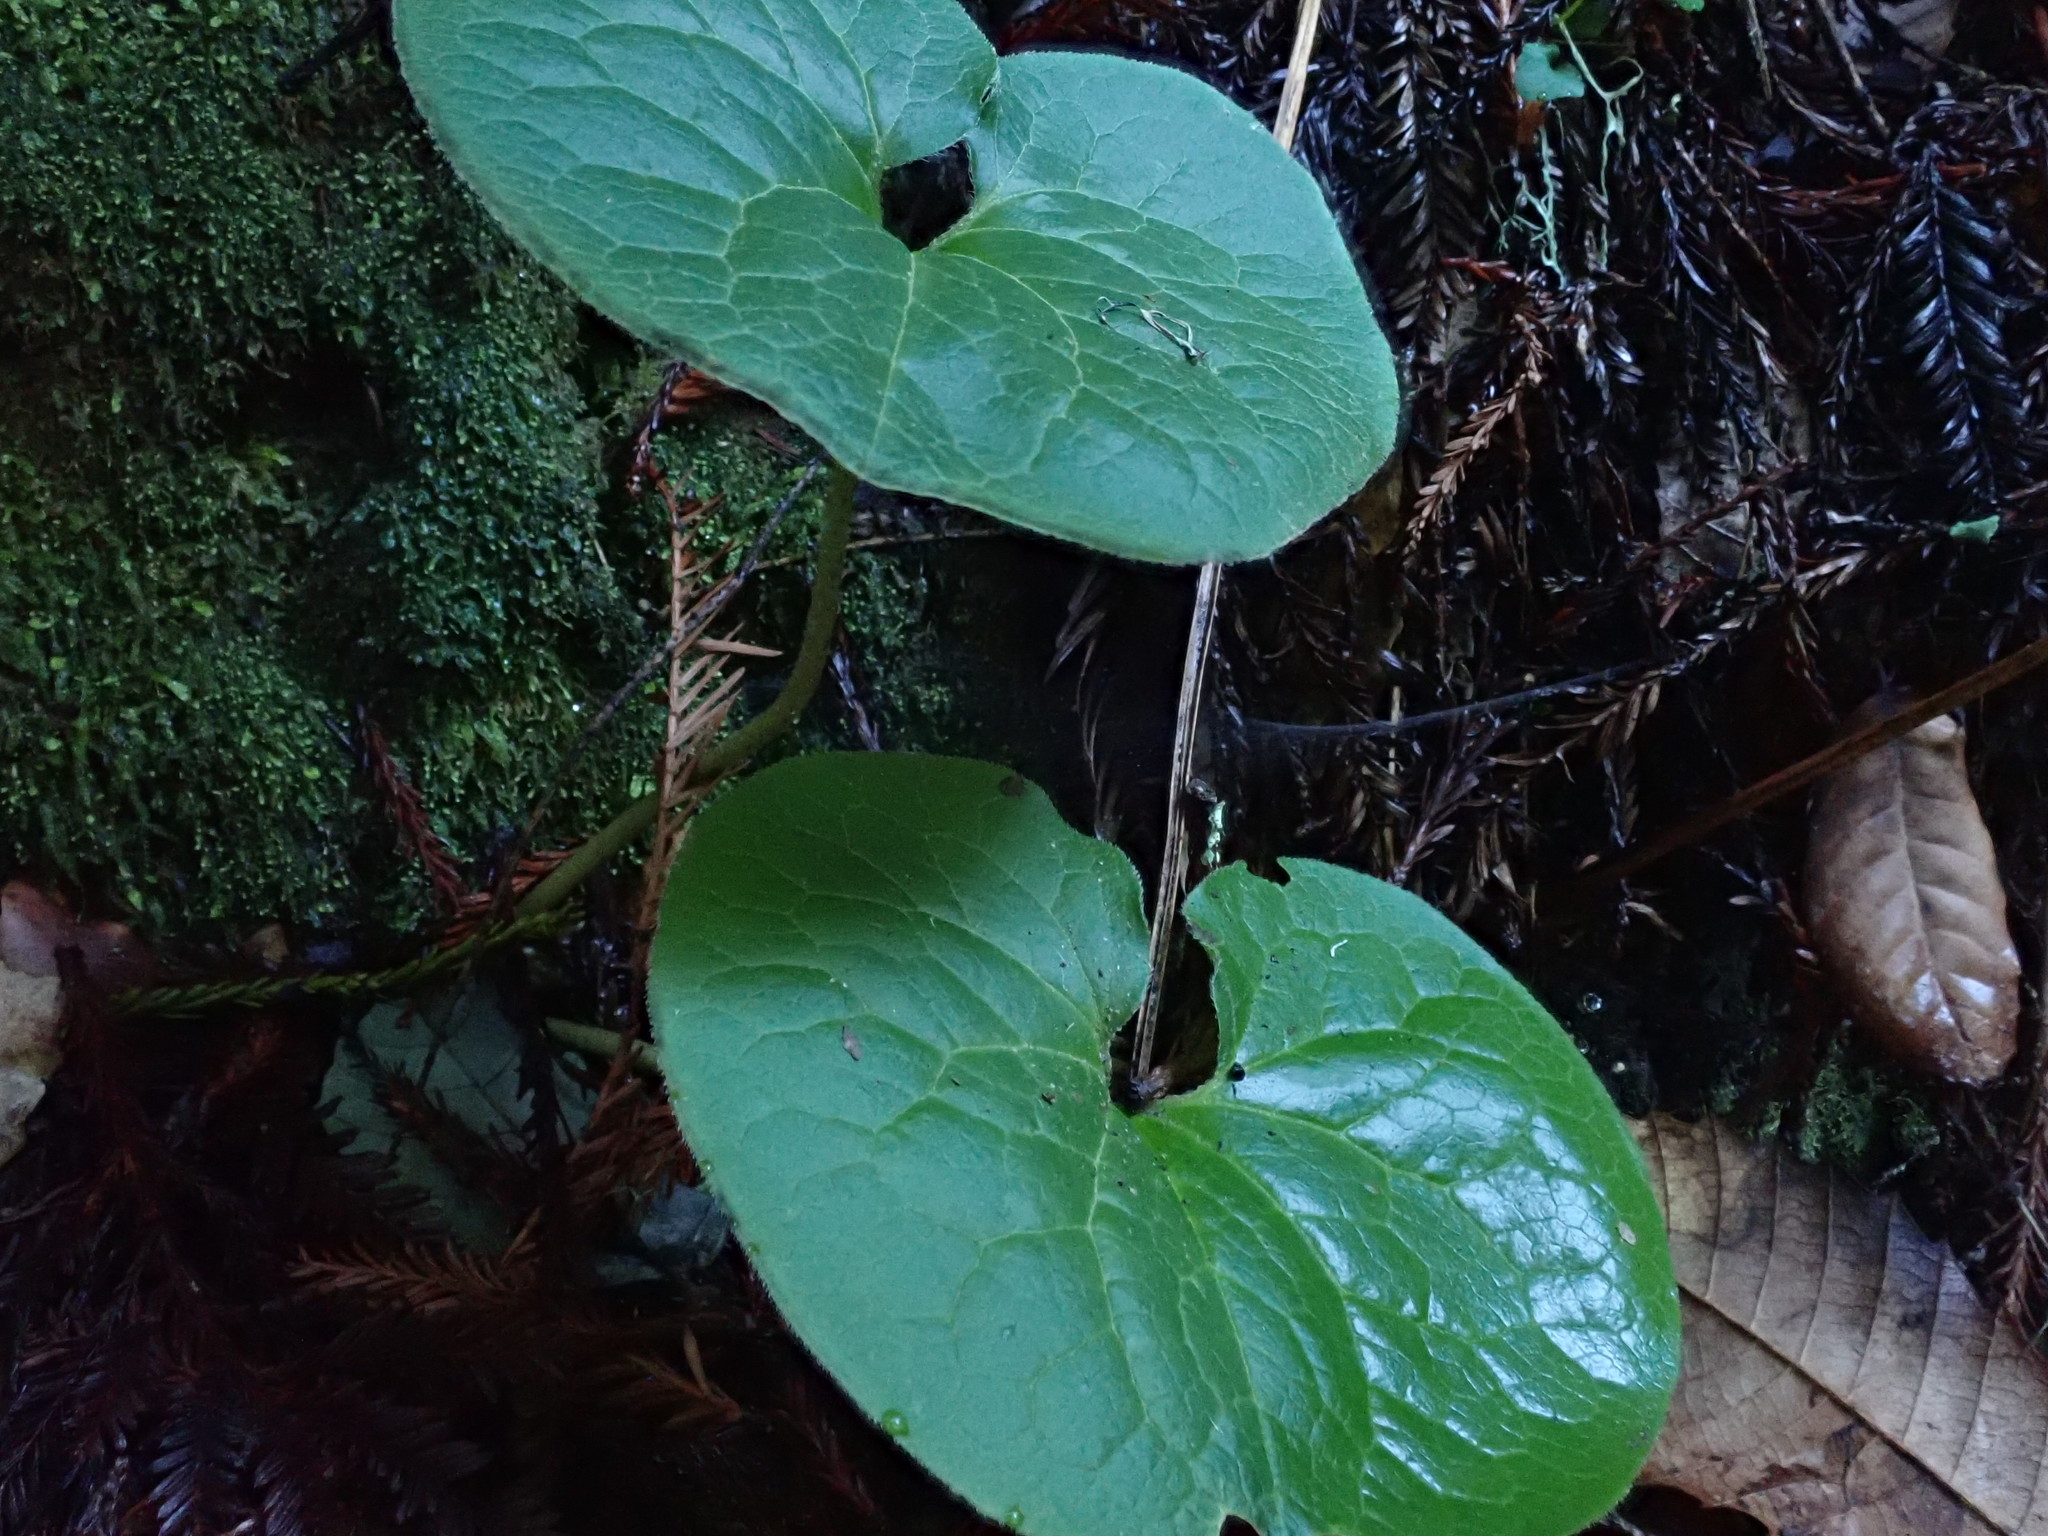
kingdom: Plantae
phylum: Tracheophyta
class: Magnoliopsida
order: Piperales
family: Aristolochiaceae
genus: Asarum
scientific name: Asarum caudatum
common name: Wild ginger
